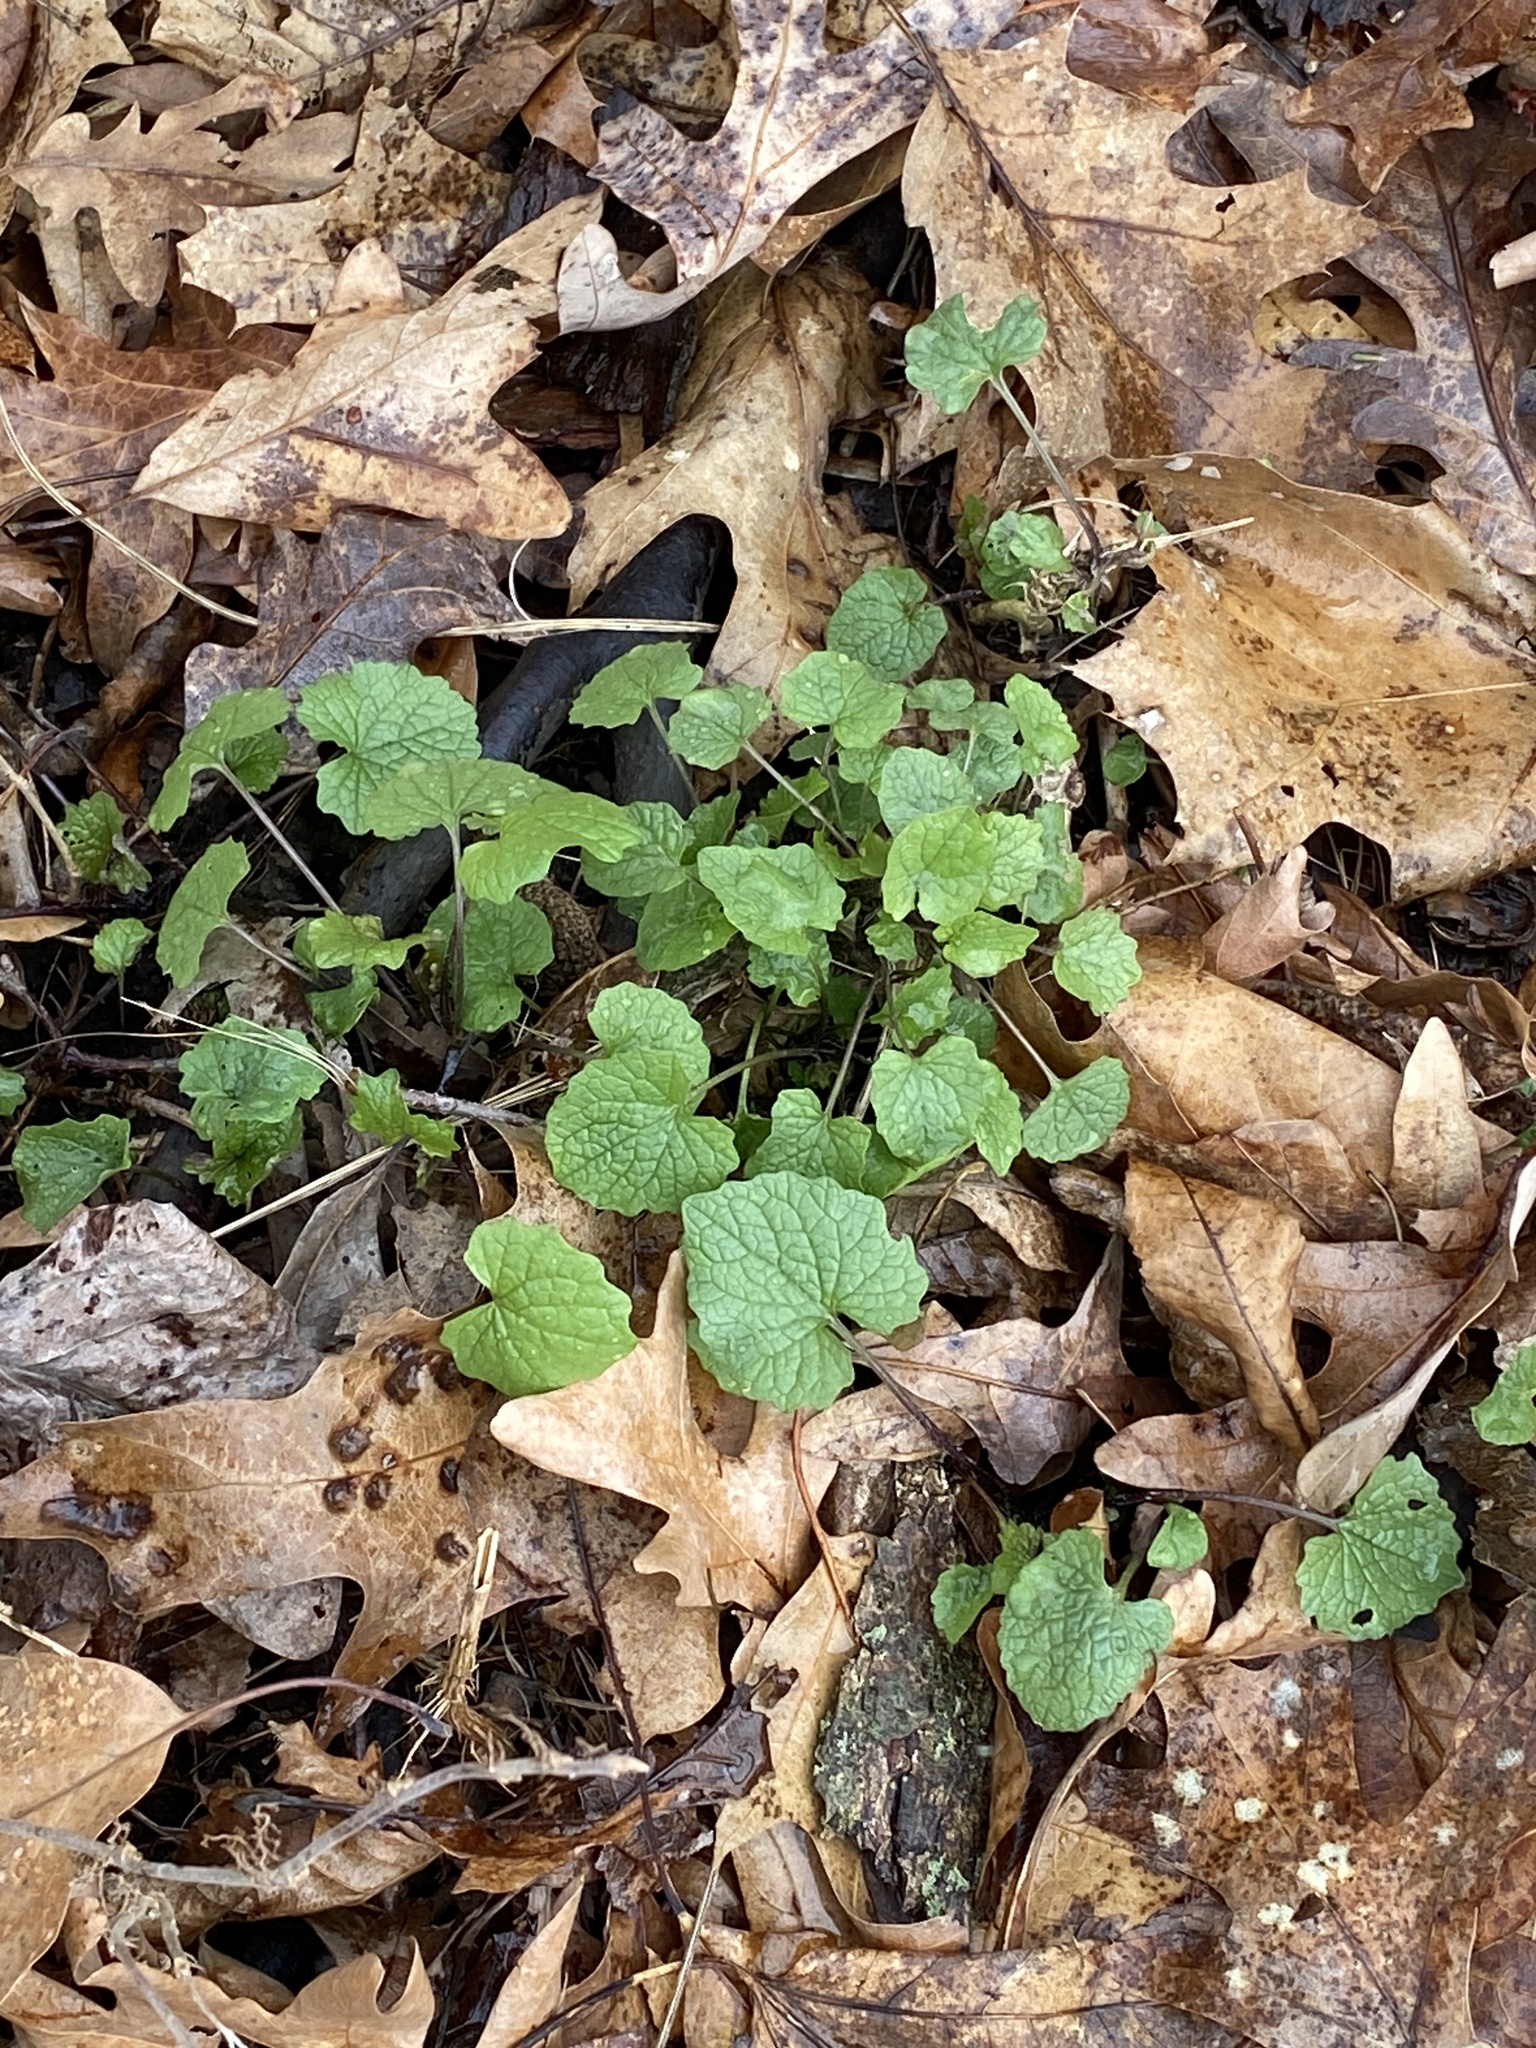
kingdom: Plantae
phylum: Tracheophyta
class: Magnoliopsida
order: Brassicales
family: Brassicaceae
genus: Alliaria
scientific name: Alliaria petiolata
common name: Garlic mustard
